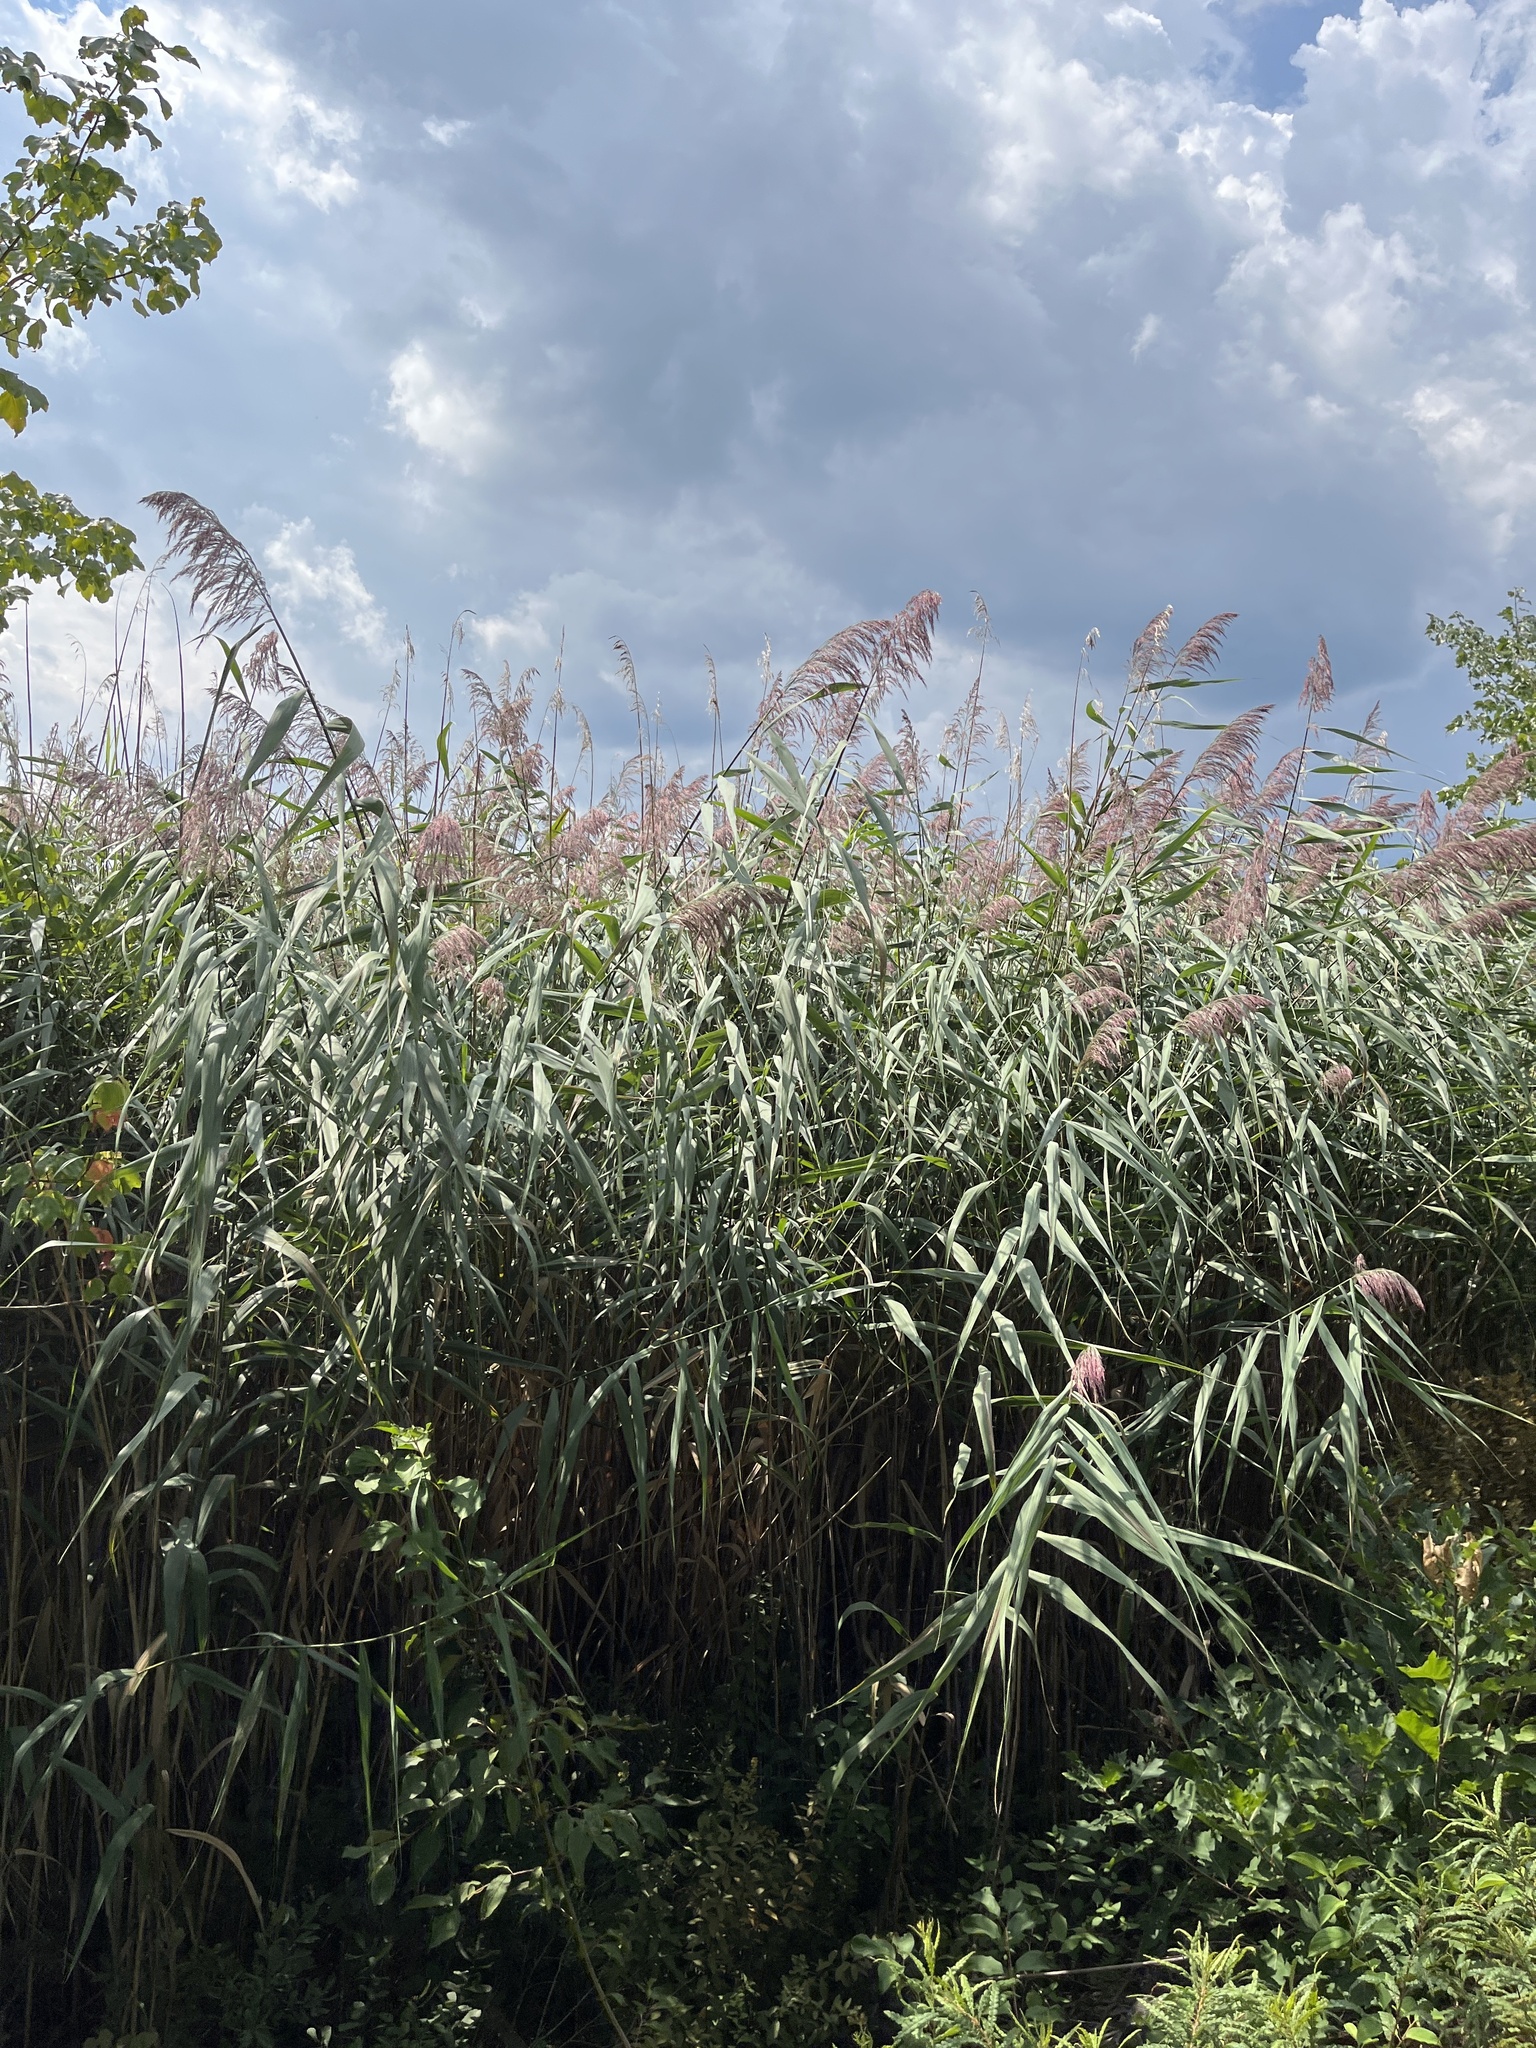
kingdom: Plantae
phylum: Tracheophyta
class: Liliopsida
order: Poales
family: Poaceae
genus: Phragmites
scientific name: Phragmites australis
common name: Common reed
